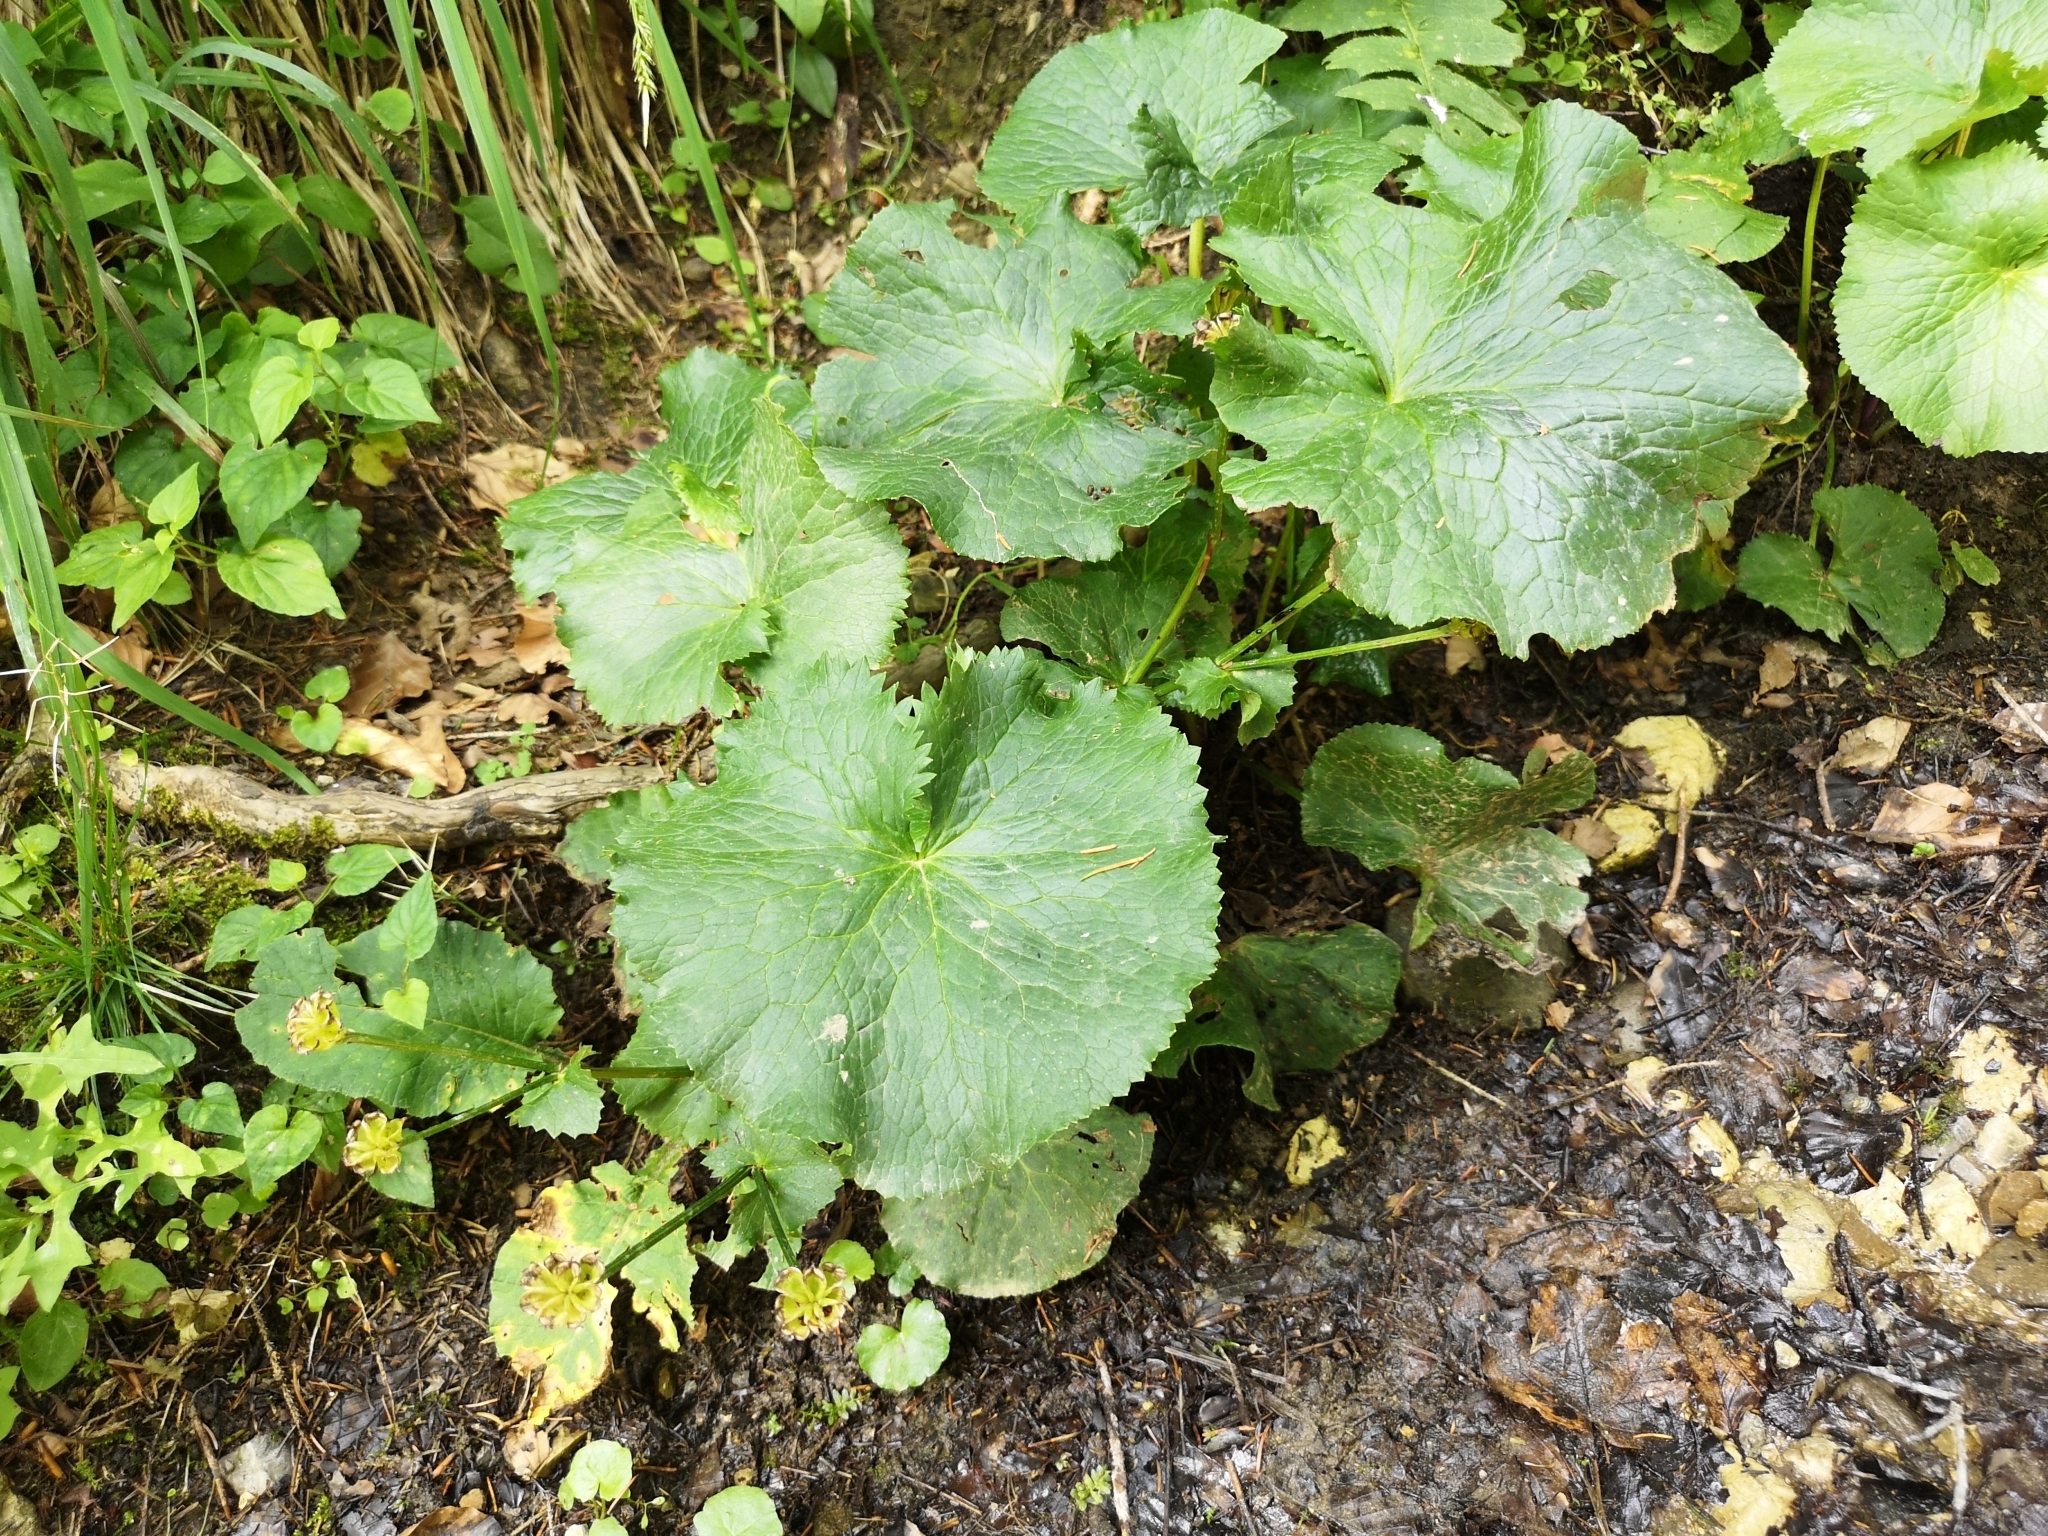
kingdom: Plantae
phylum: Tracheophyta
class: Magnoliopsida
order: Ranunculales
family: Ranunculaceae
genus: Caltha
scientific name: Caltha palustris
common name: Marsh marigold
